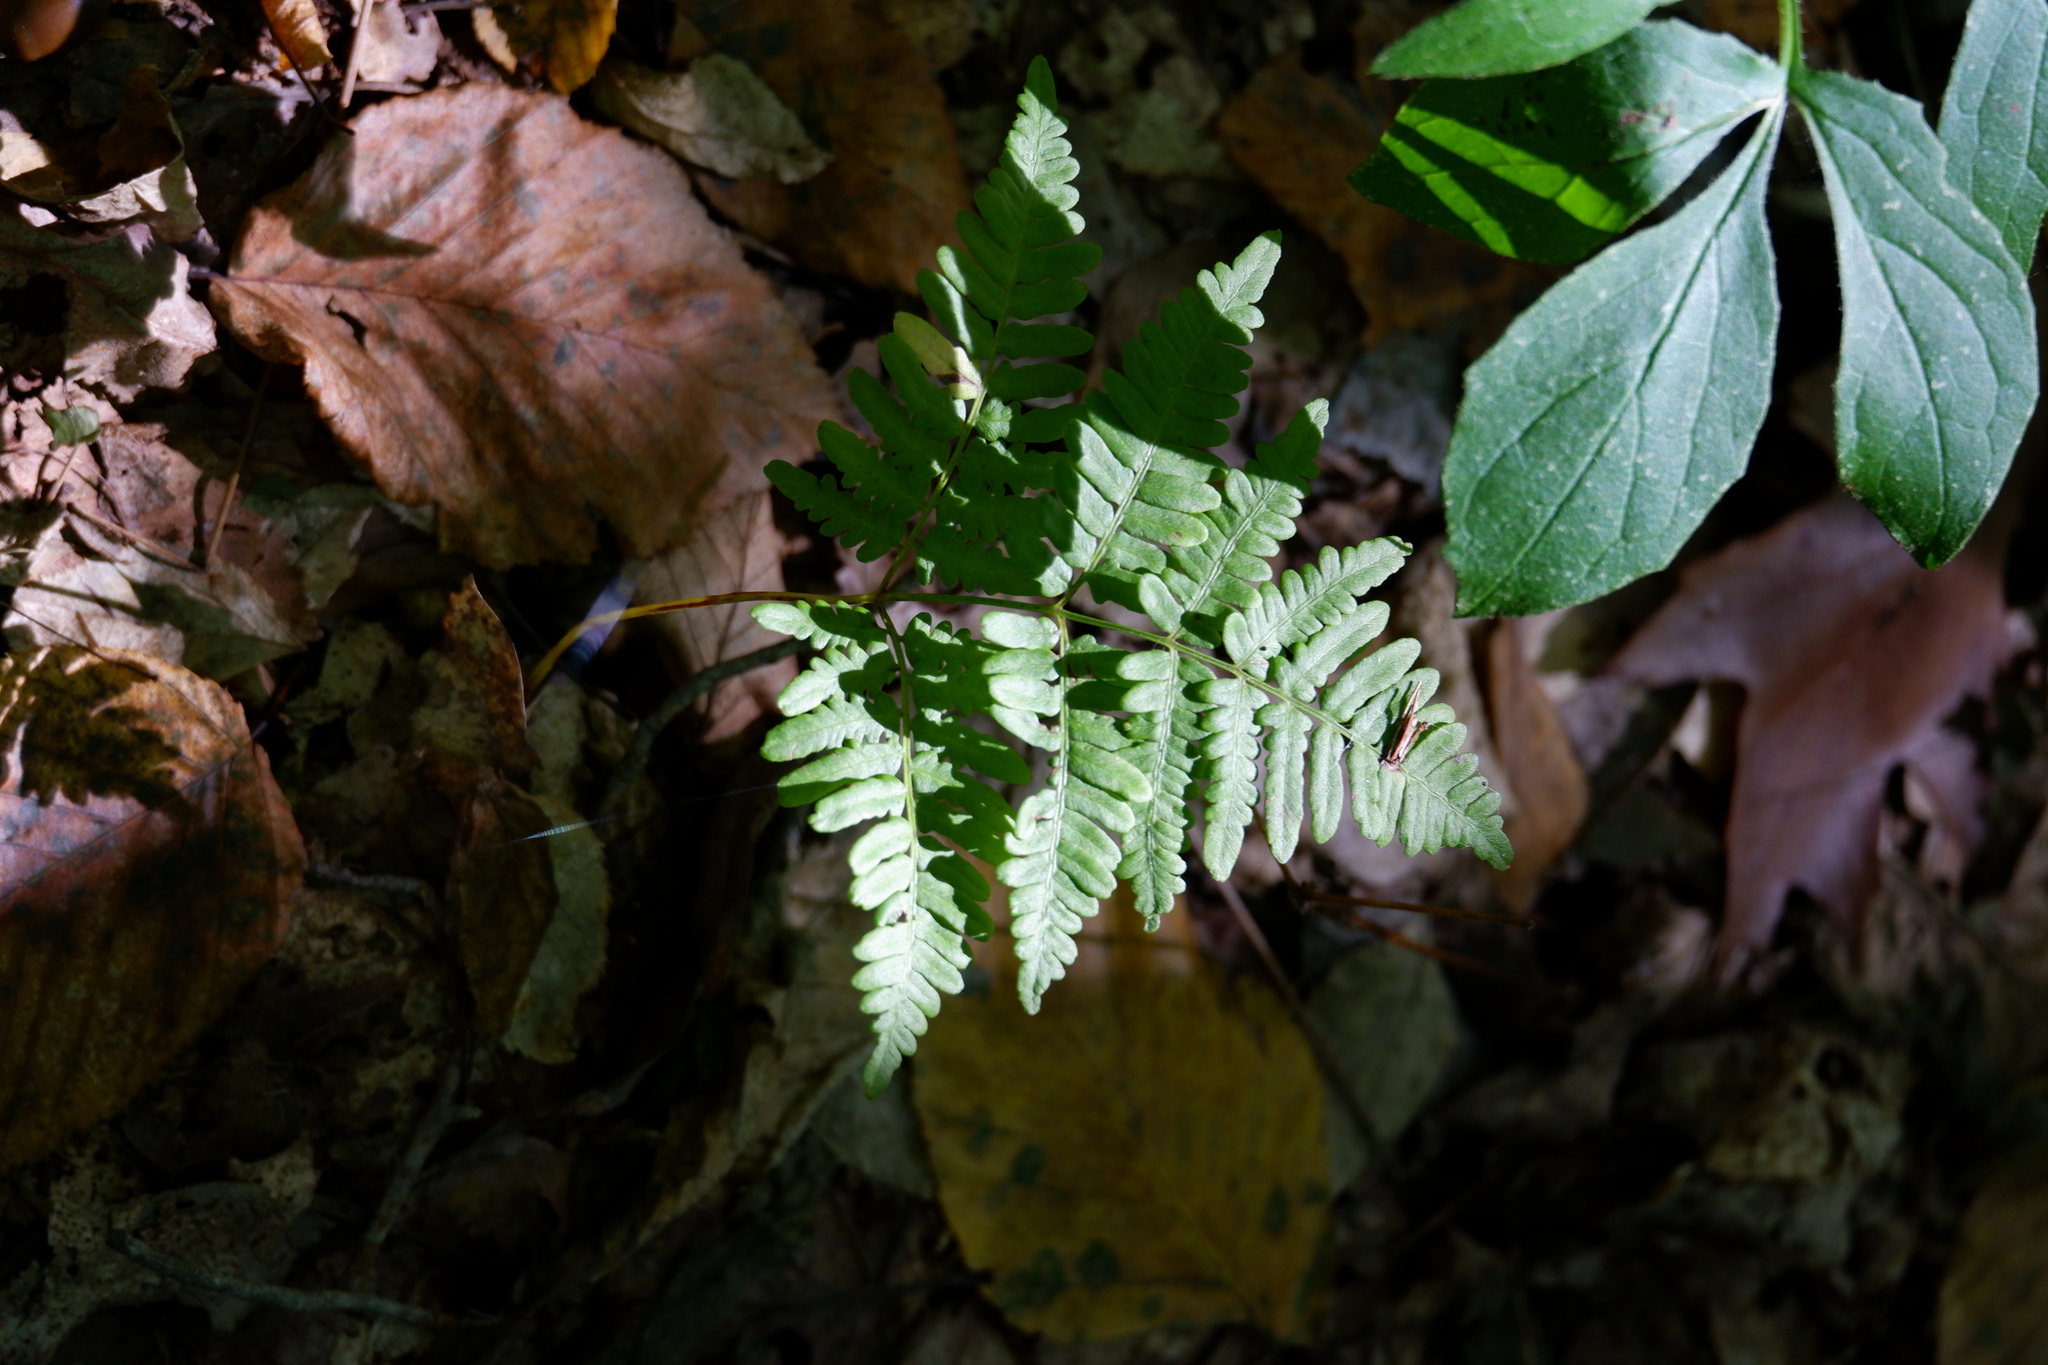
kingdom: Plantae
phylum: Tracheophyta
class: Polypodiopsida
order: Polypodiales
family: Dennstaedtiaceae
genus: Pteridium
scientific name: Pteridium aquilinum
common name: Bracken
